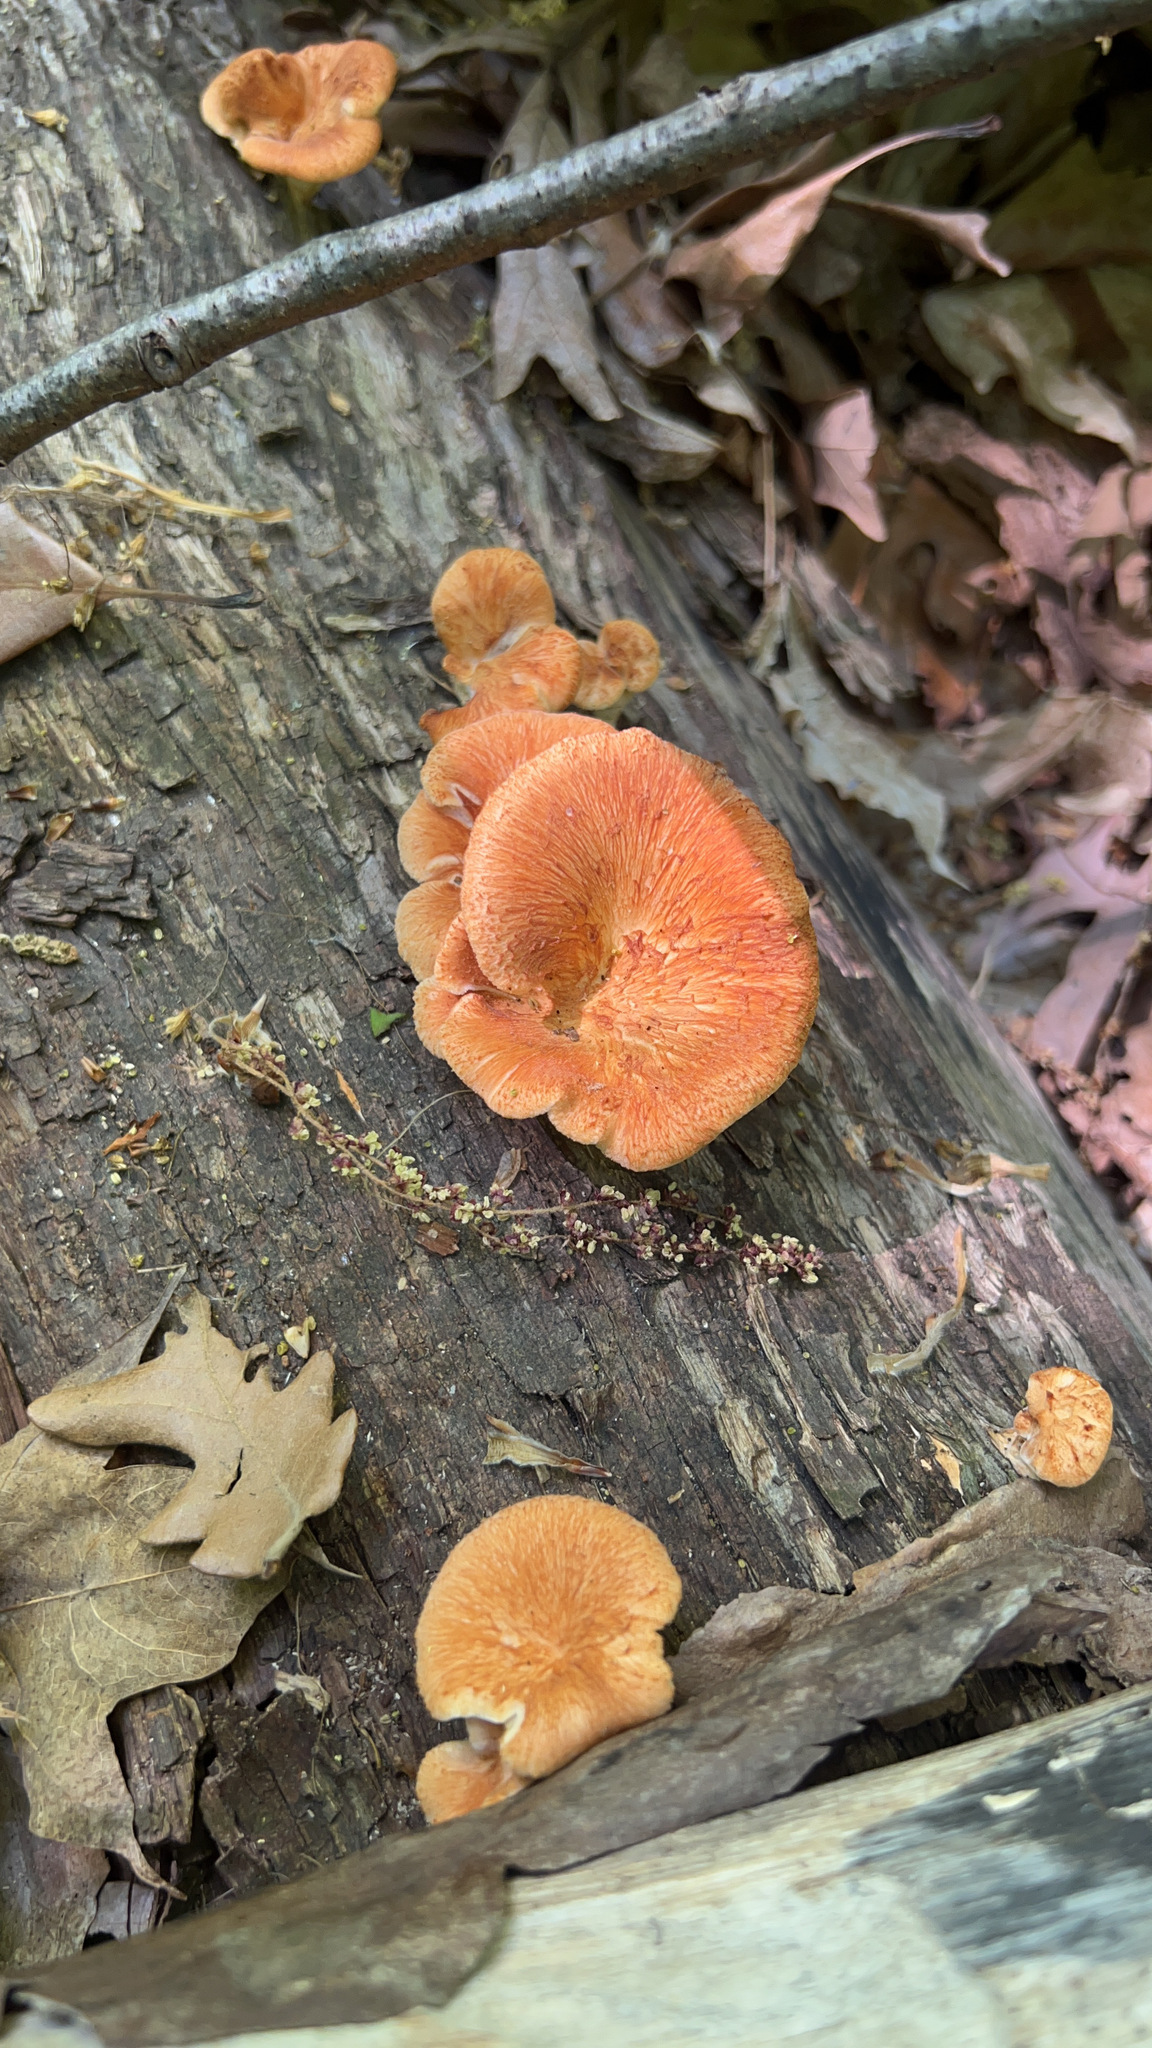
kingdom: Fungi
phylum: Basidiomycota
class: Agaricomycetes
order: Polyporales
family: Polyporaceae
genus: Neofavolus
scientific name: Neofavolus alveolaris
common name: Hexagonal-pored polypore
